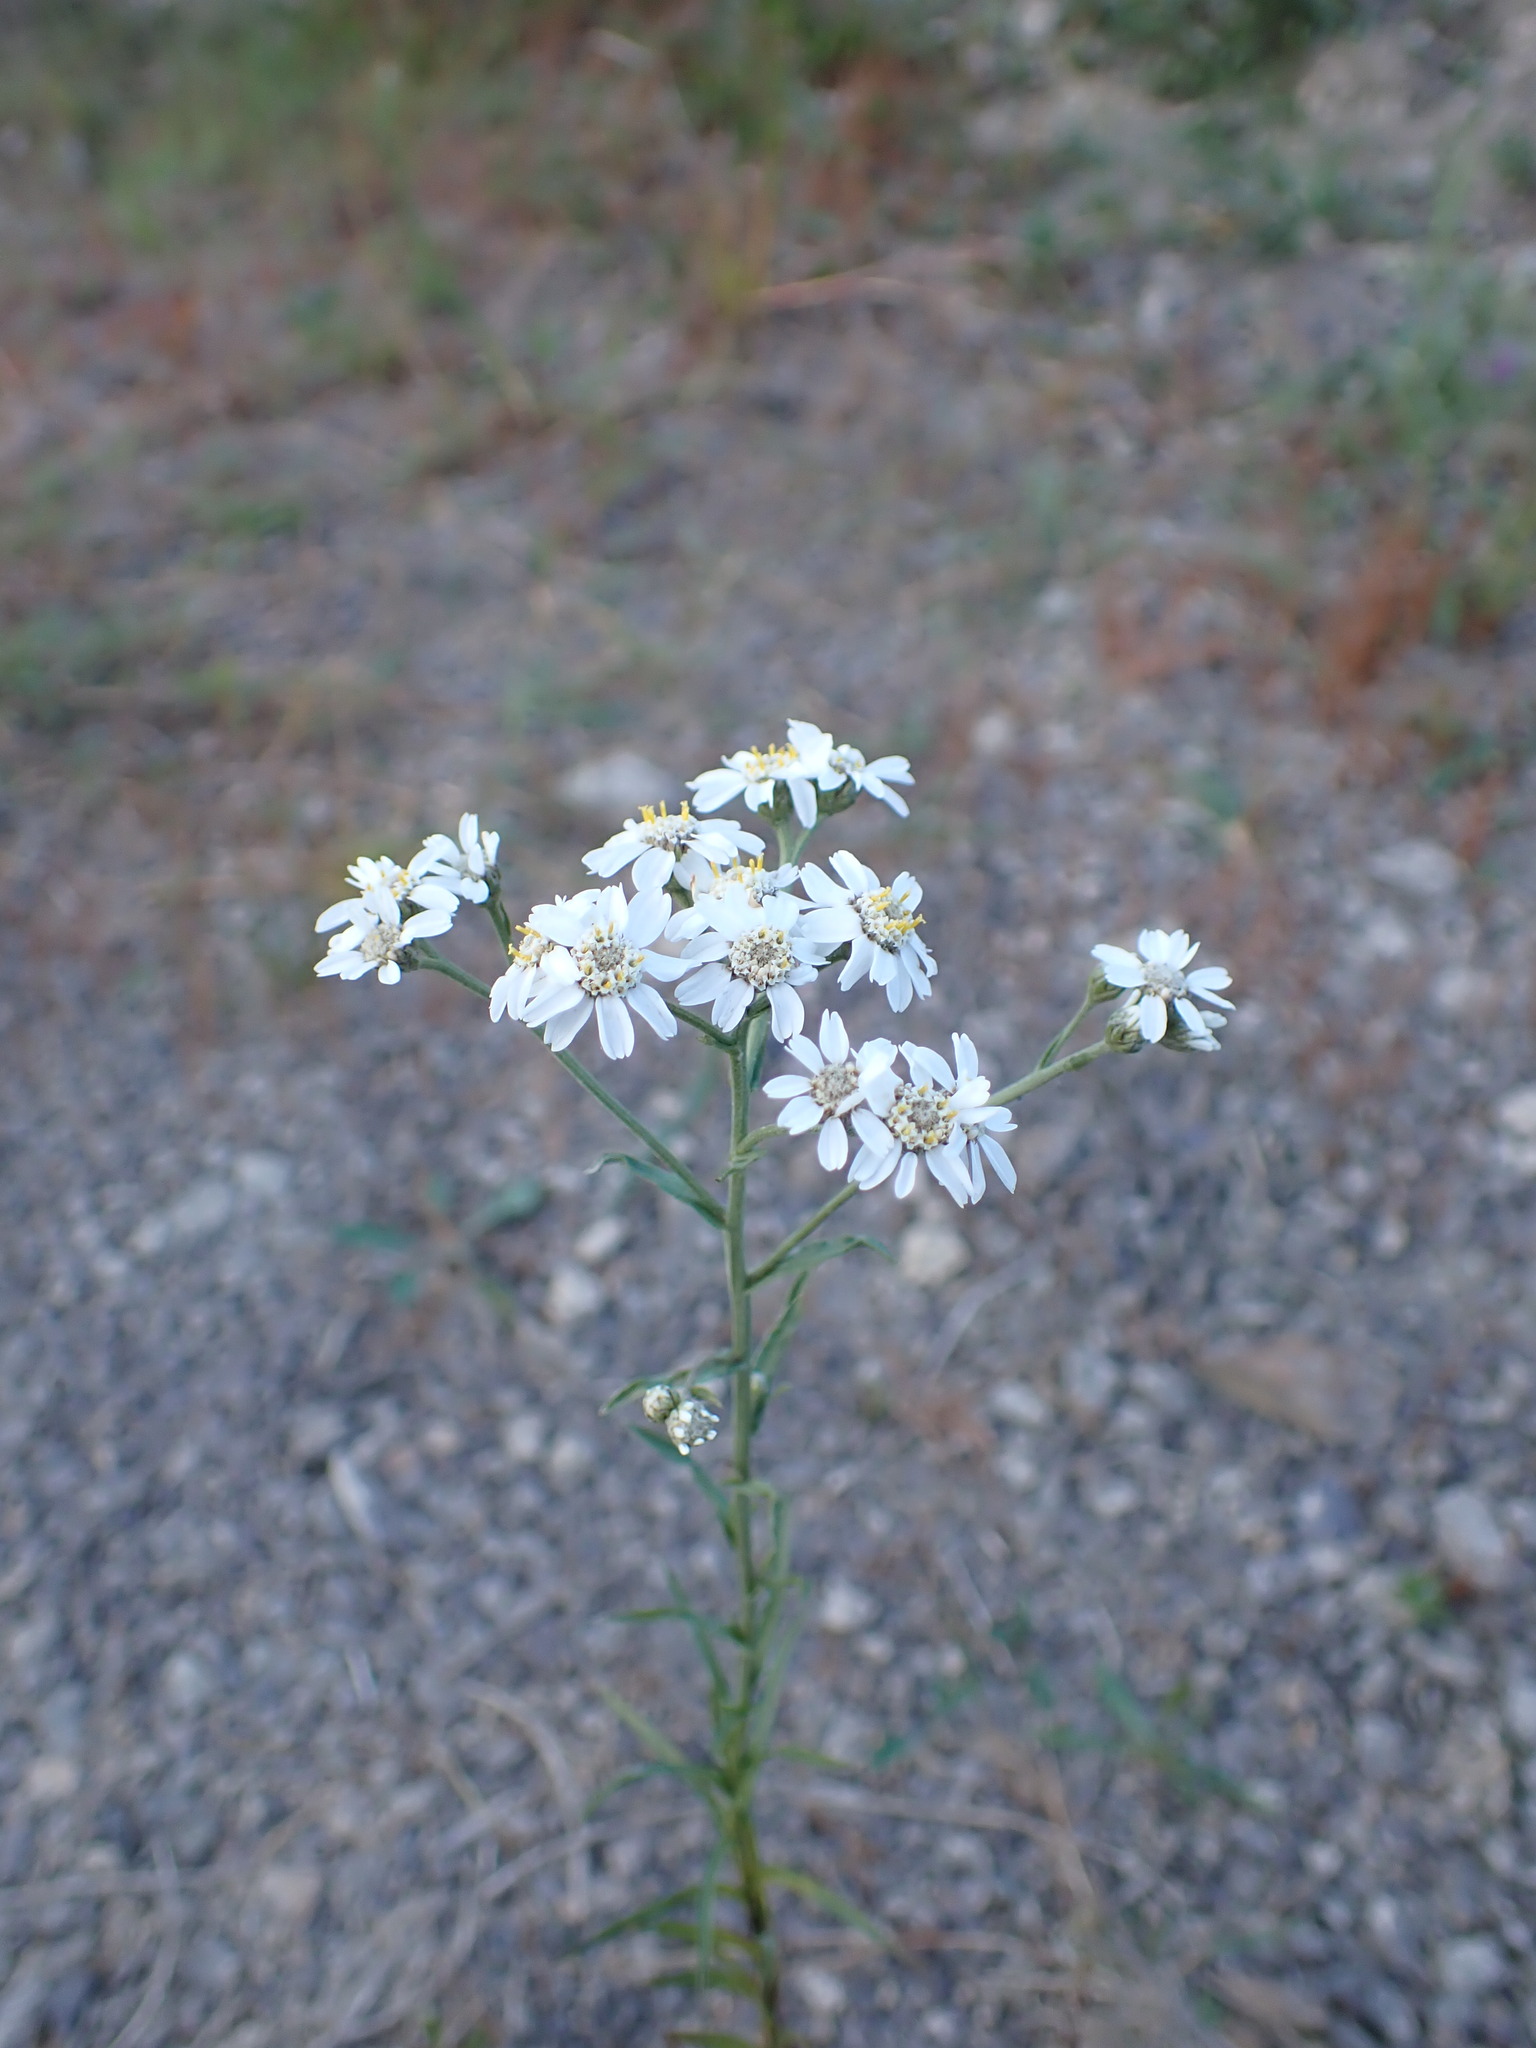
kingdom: Plantae
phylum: Tracheophyta
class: Magnoliopsida
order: Asterales
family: Asteraceae
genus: Achillea
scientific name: Achillea ptarmica
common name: Sneezeweed
